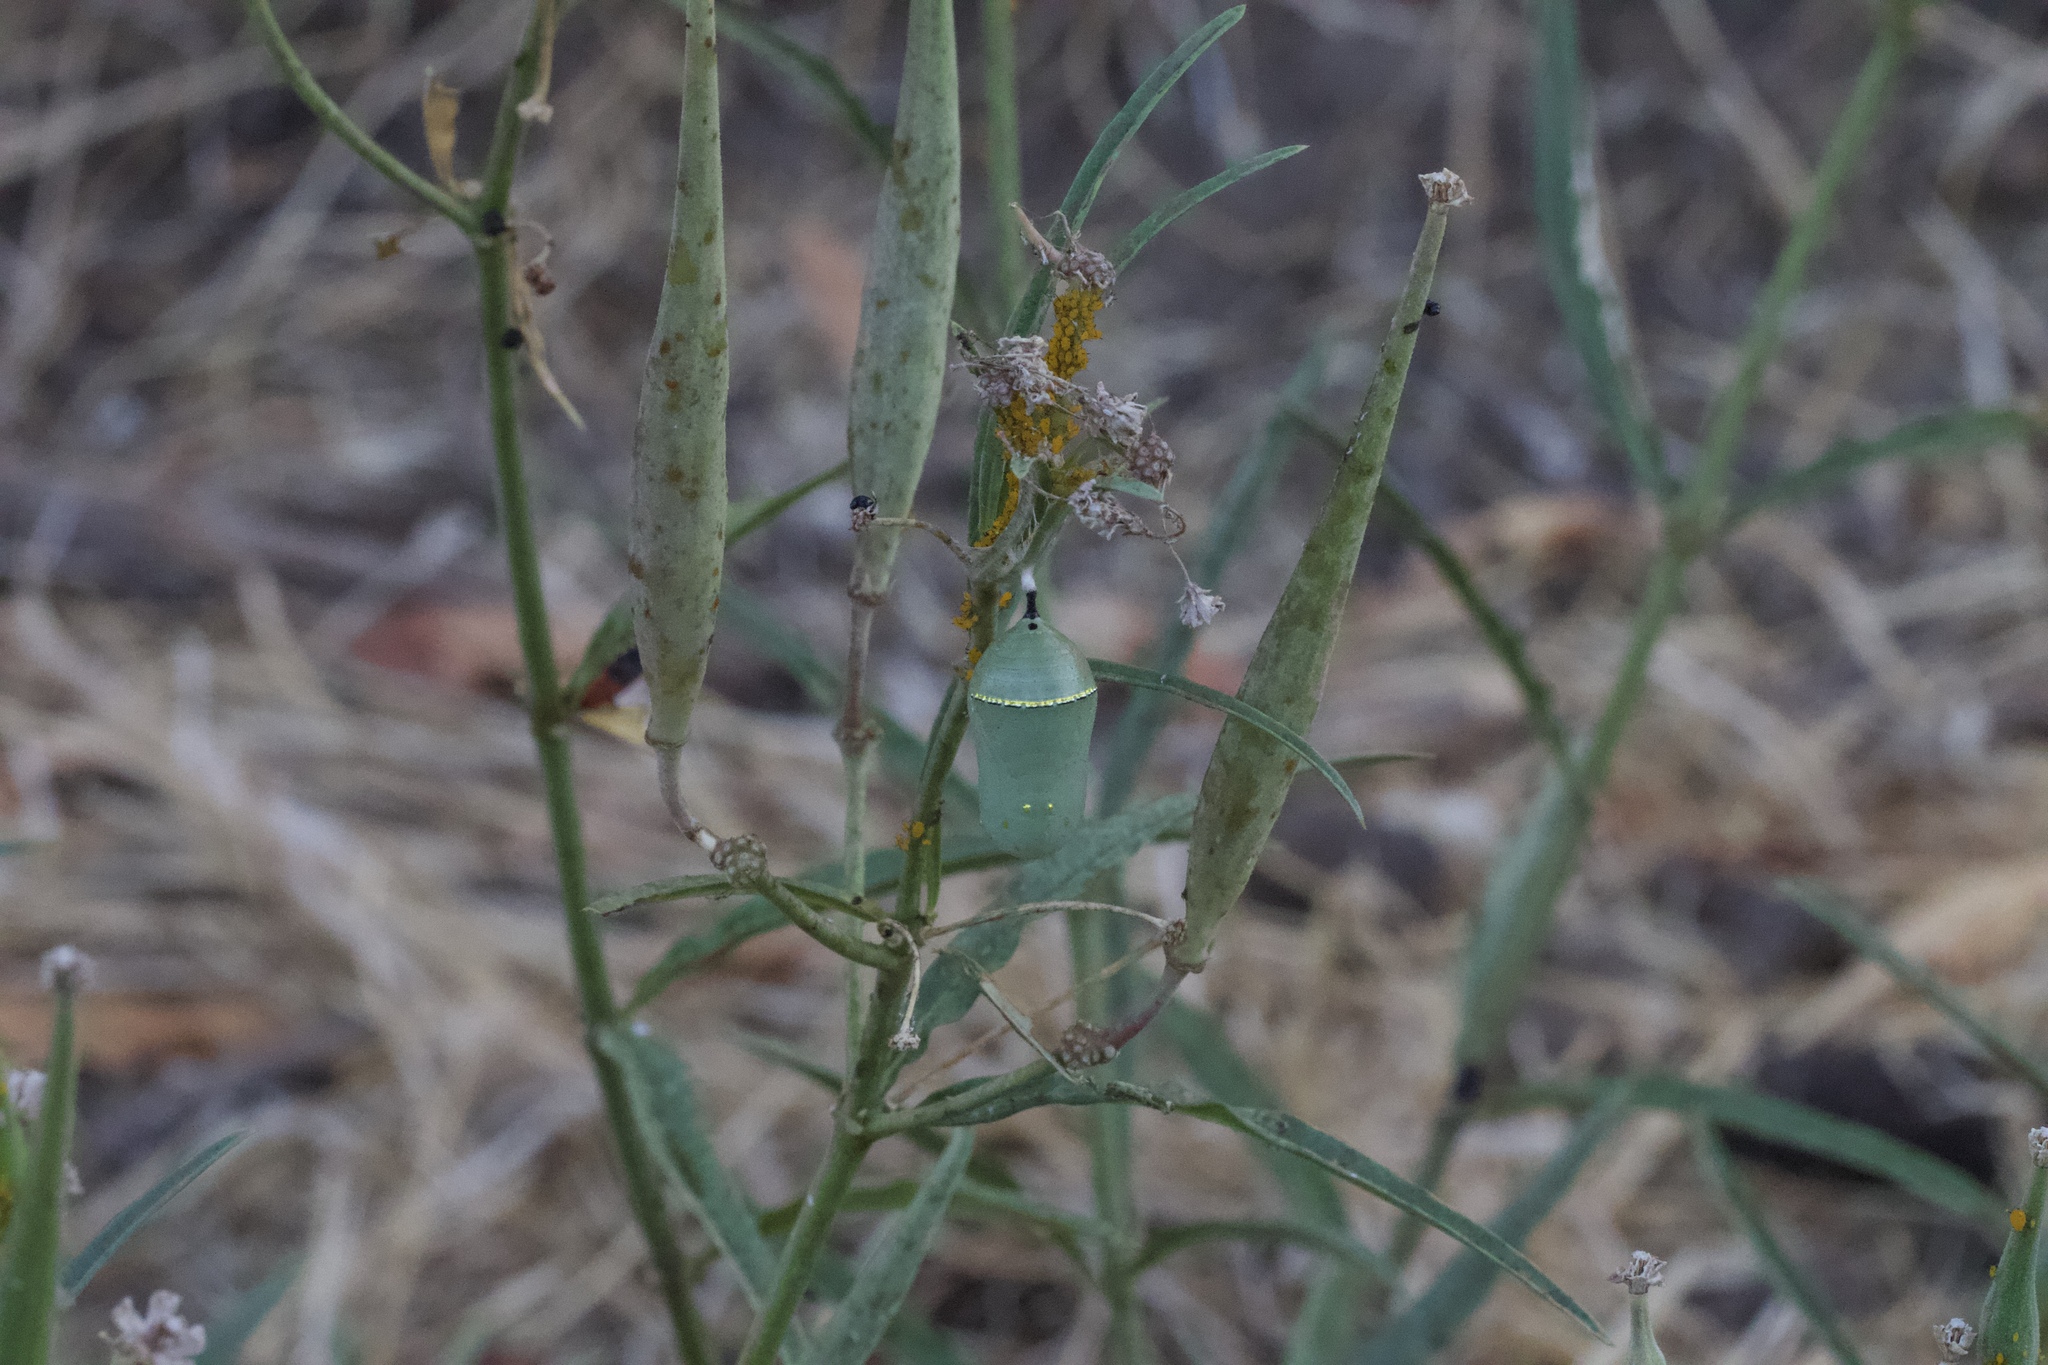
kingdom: Animalia
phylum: Arthropoda
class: Insecta
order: Lepidoptera
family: Nymphalidae
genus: Danaus
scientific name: Danaus plexippus
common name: Monarch
